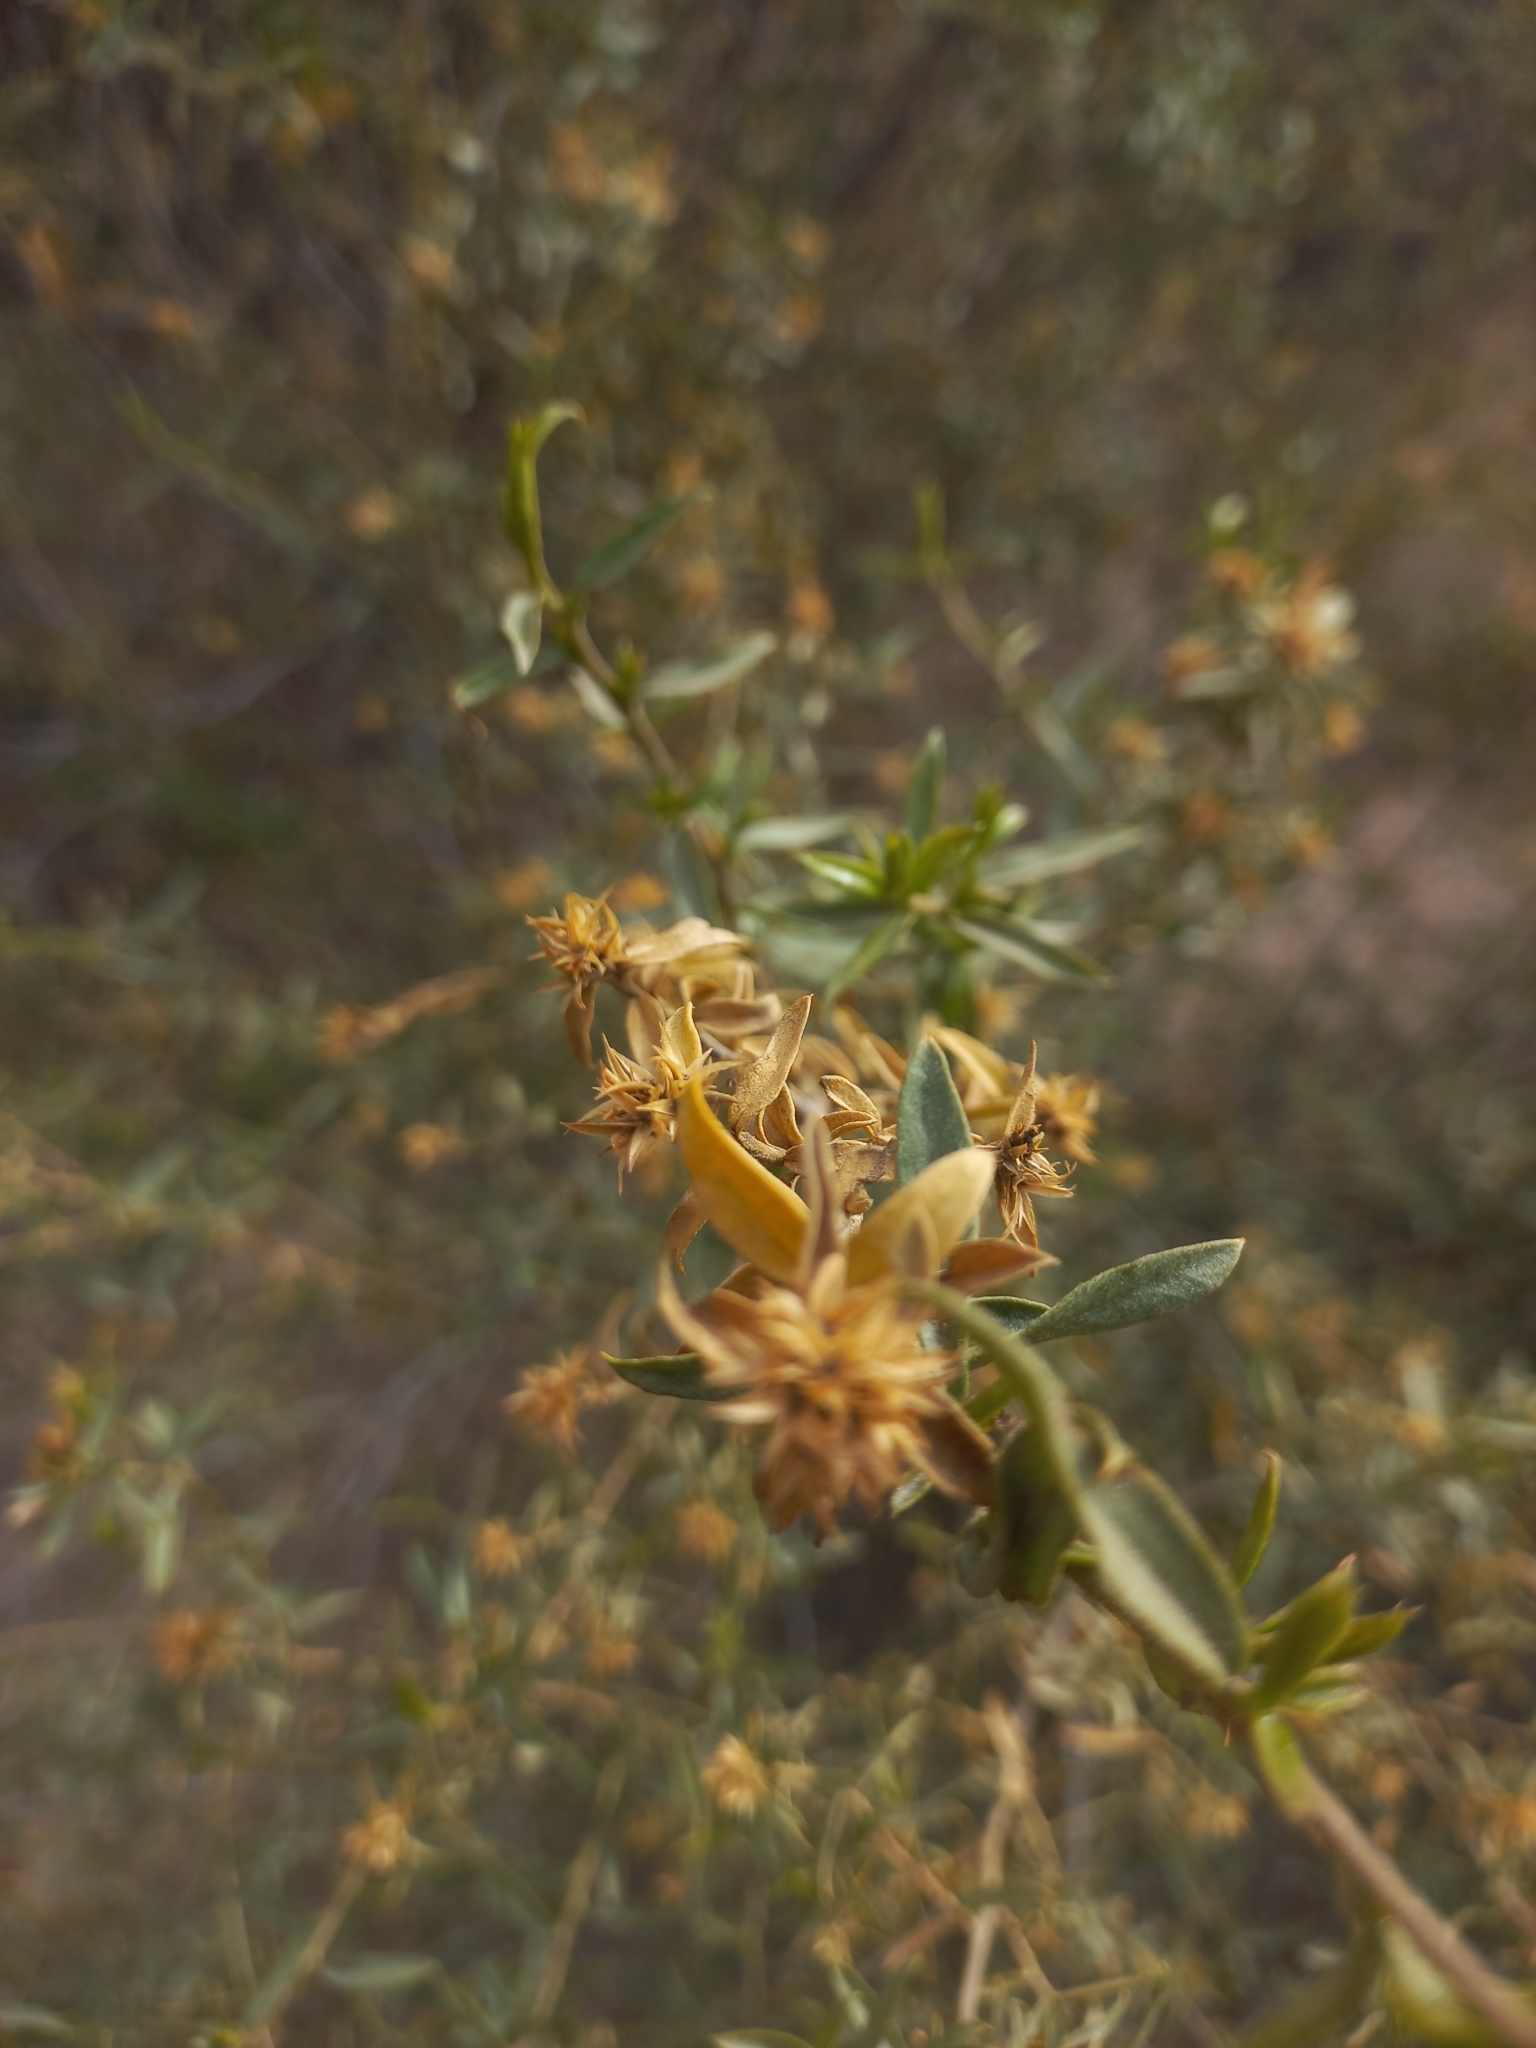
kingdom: Plantae
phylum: Tracheophyta
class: Magnoliopsida
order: Asterales
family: Asteraceae
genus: Gochnatia
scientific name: Gochnatia glutinosa
